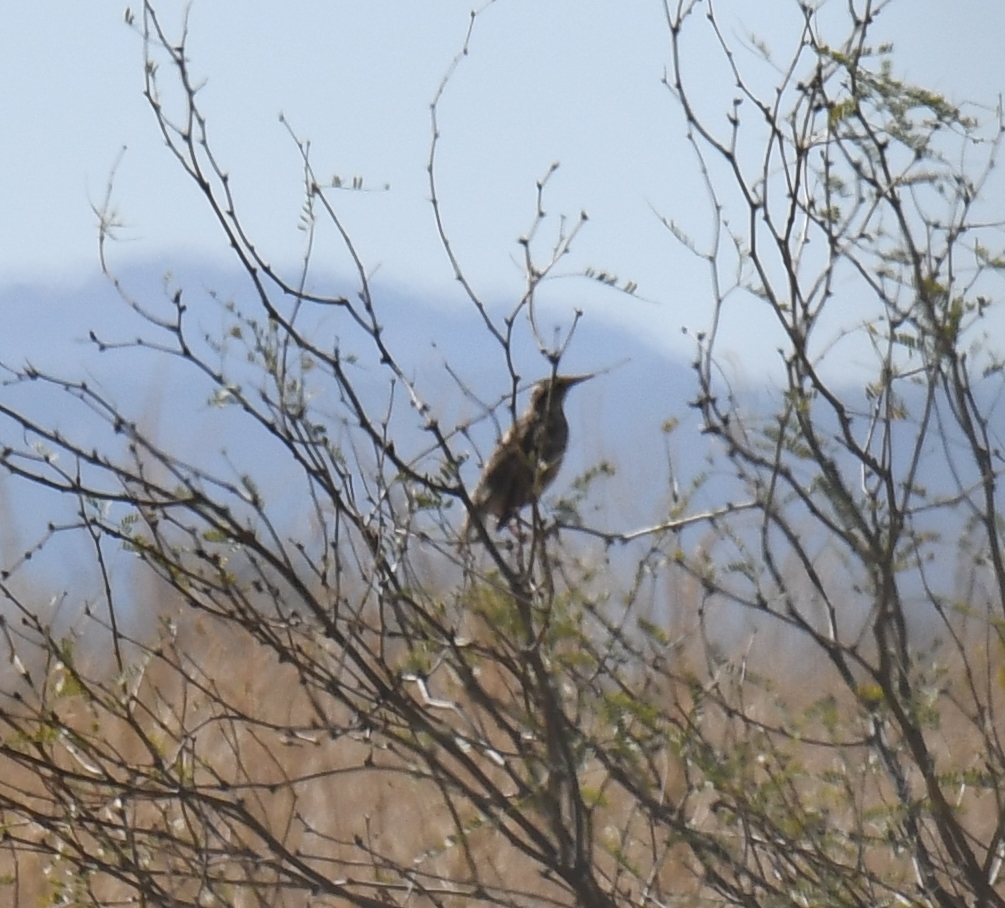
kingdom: Animalia
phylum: Chordata
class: Aves
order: Passeriformes
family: Icteridae
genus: Sturnella
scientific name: Sturnella neglecta
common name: Western meadowlark
